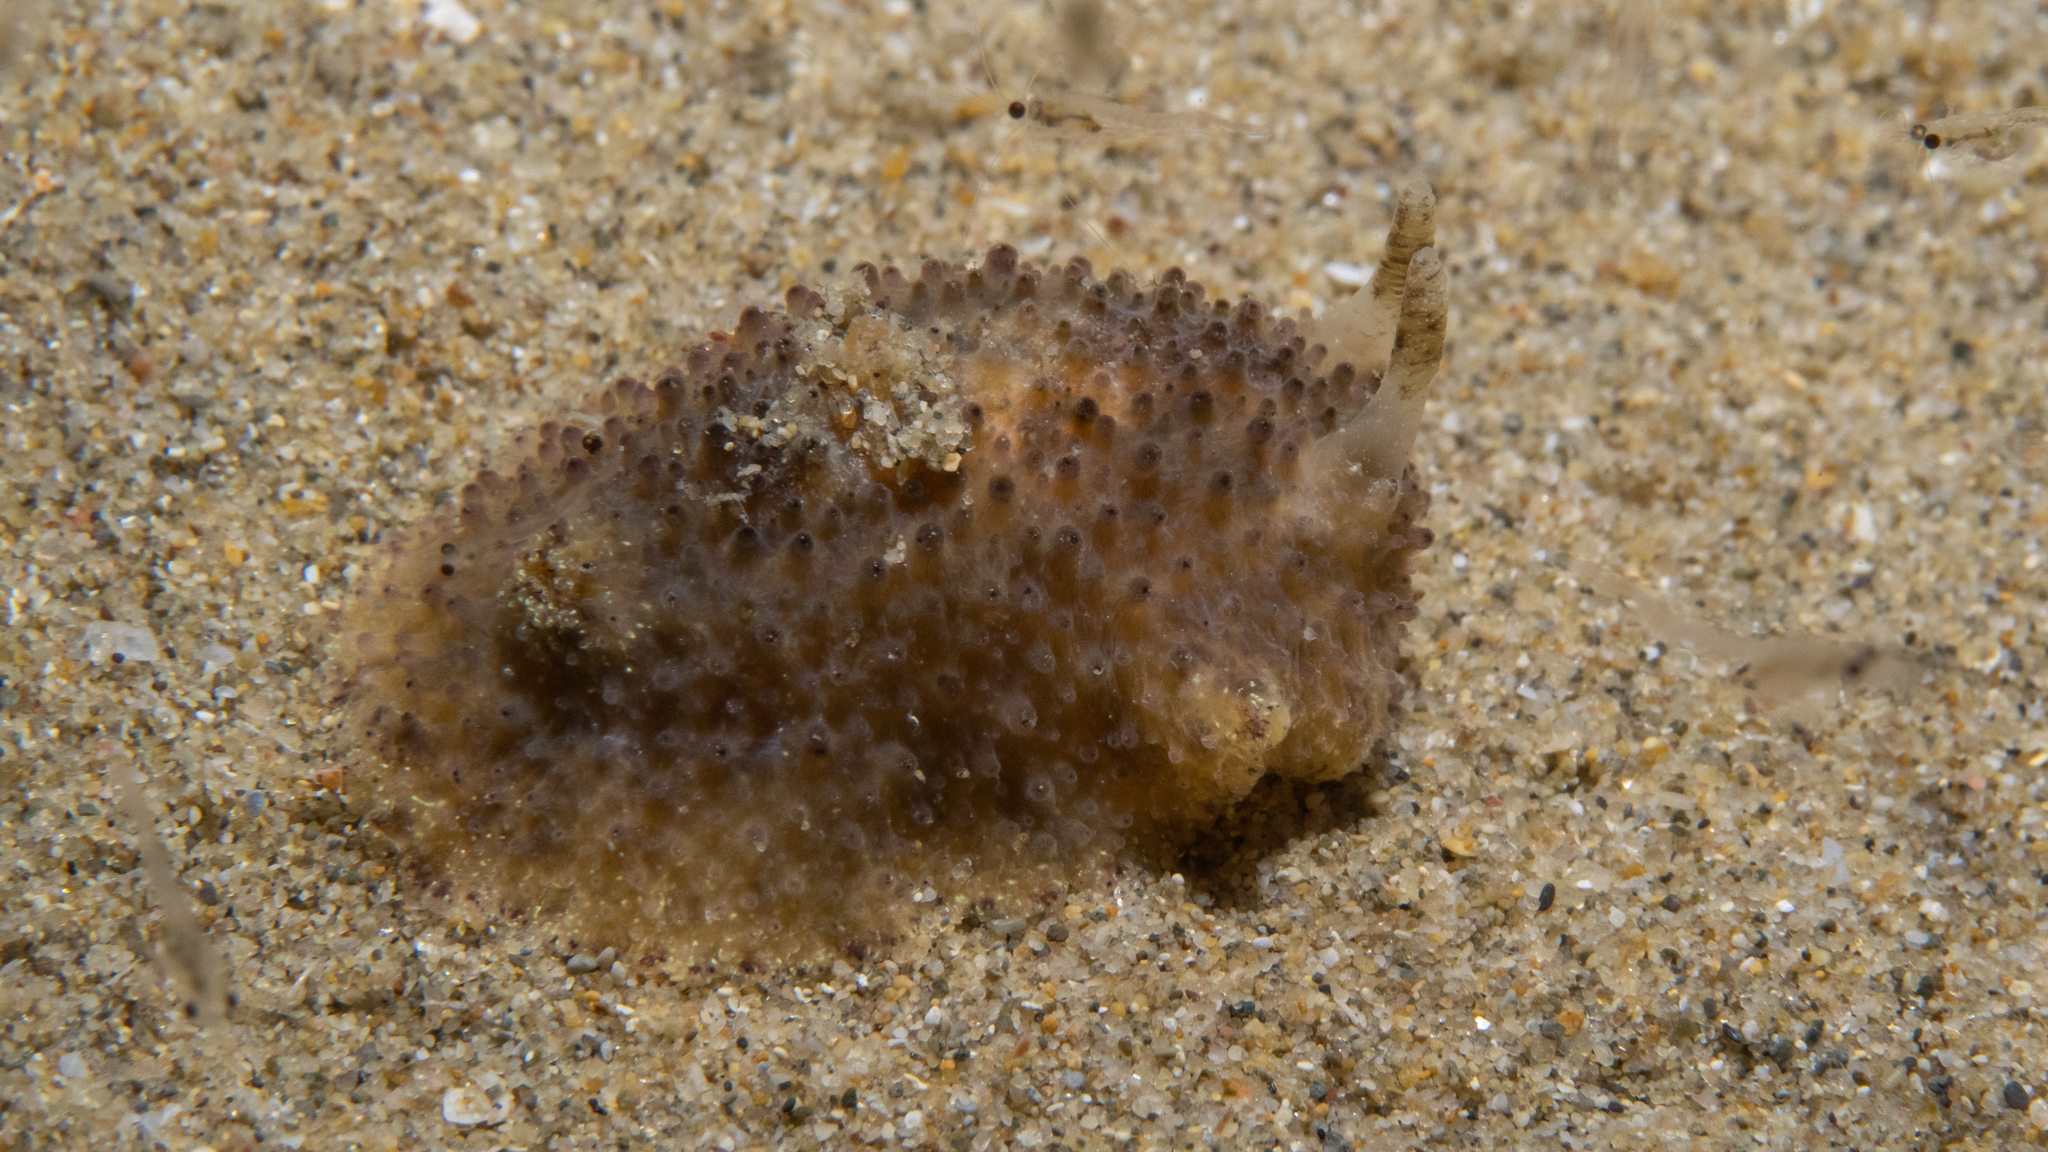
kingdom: Animalia
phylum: Mollusca
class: Gastropoda
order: Nudibranchia
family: Dorididae
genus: Doris
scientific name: Doris cameroni
